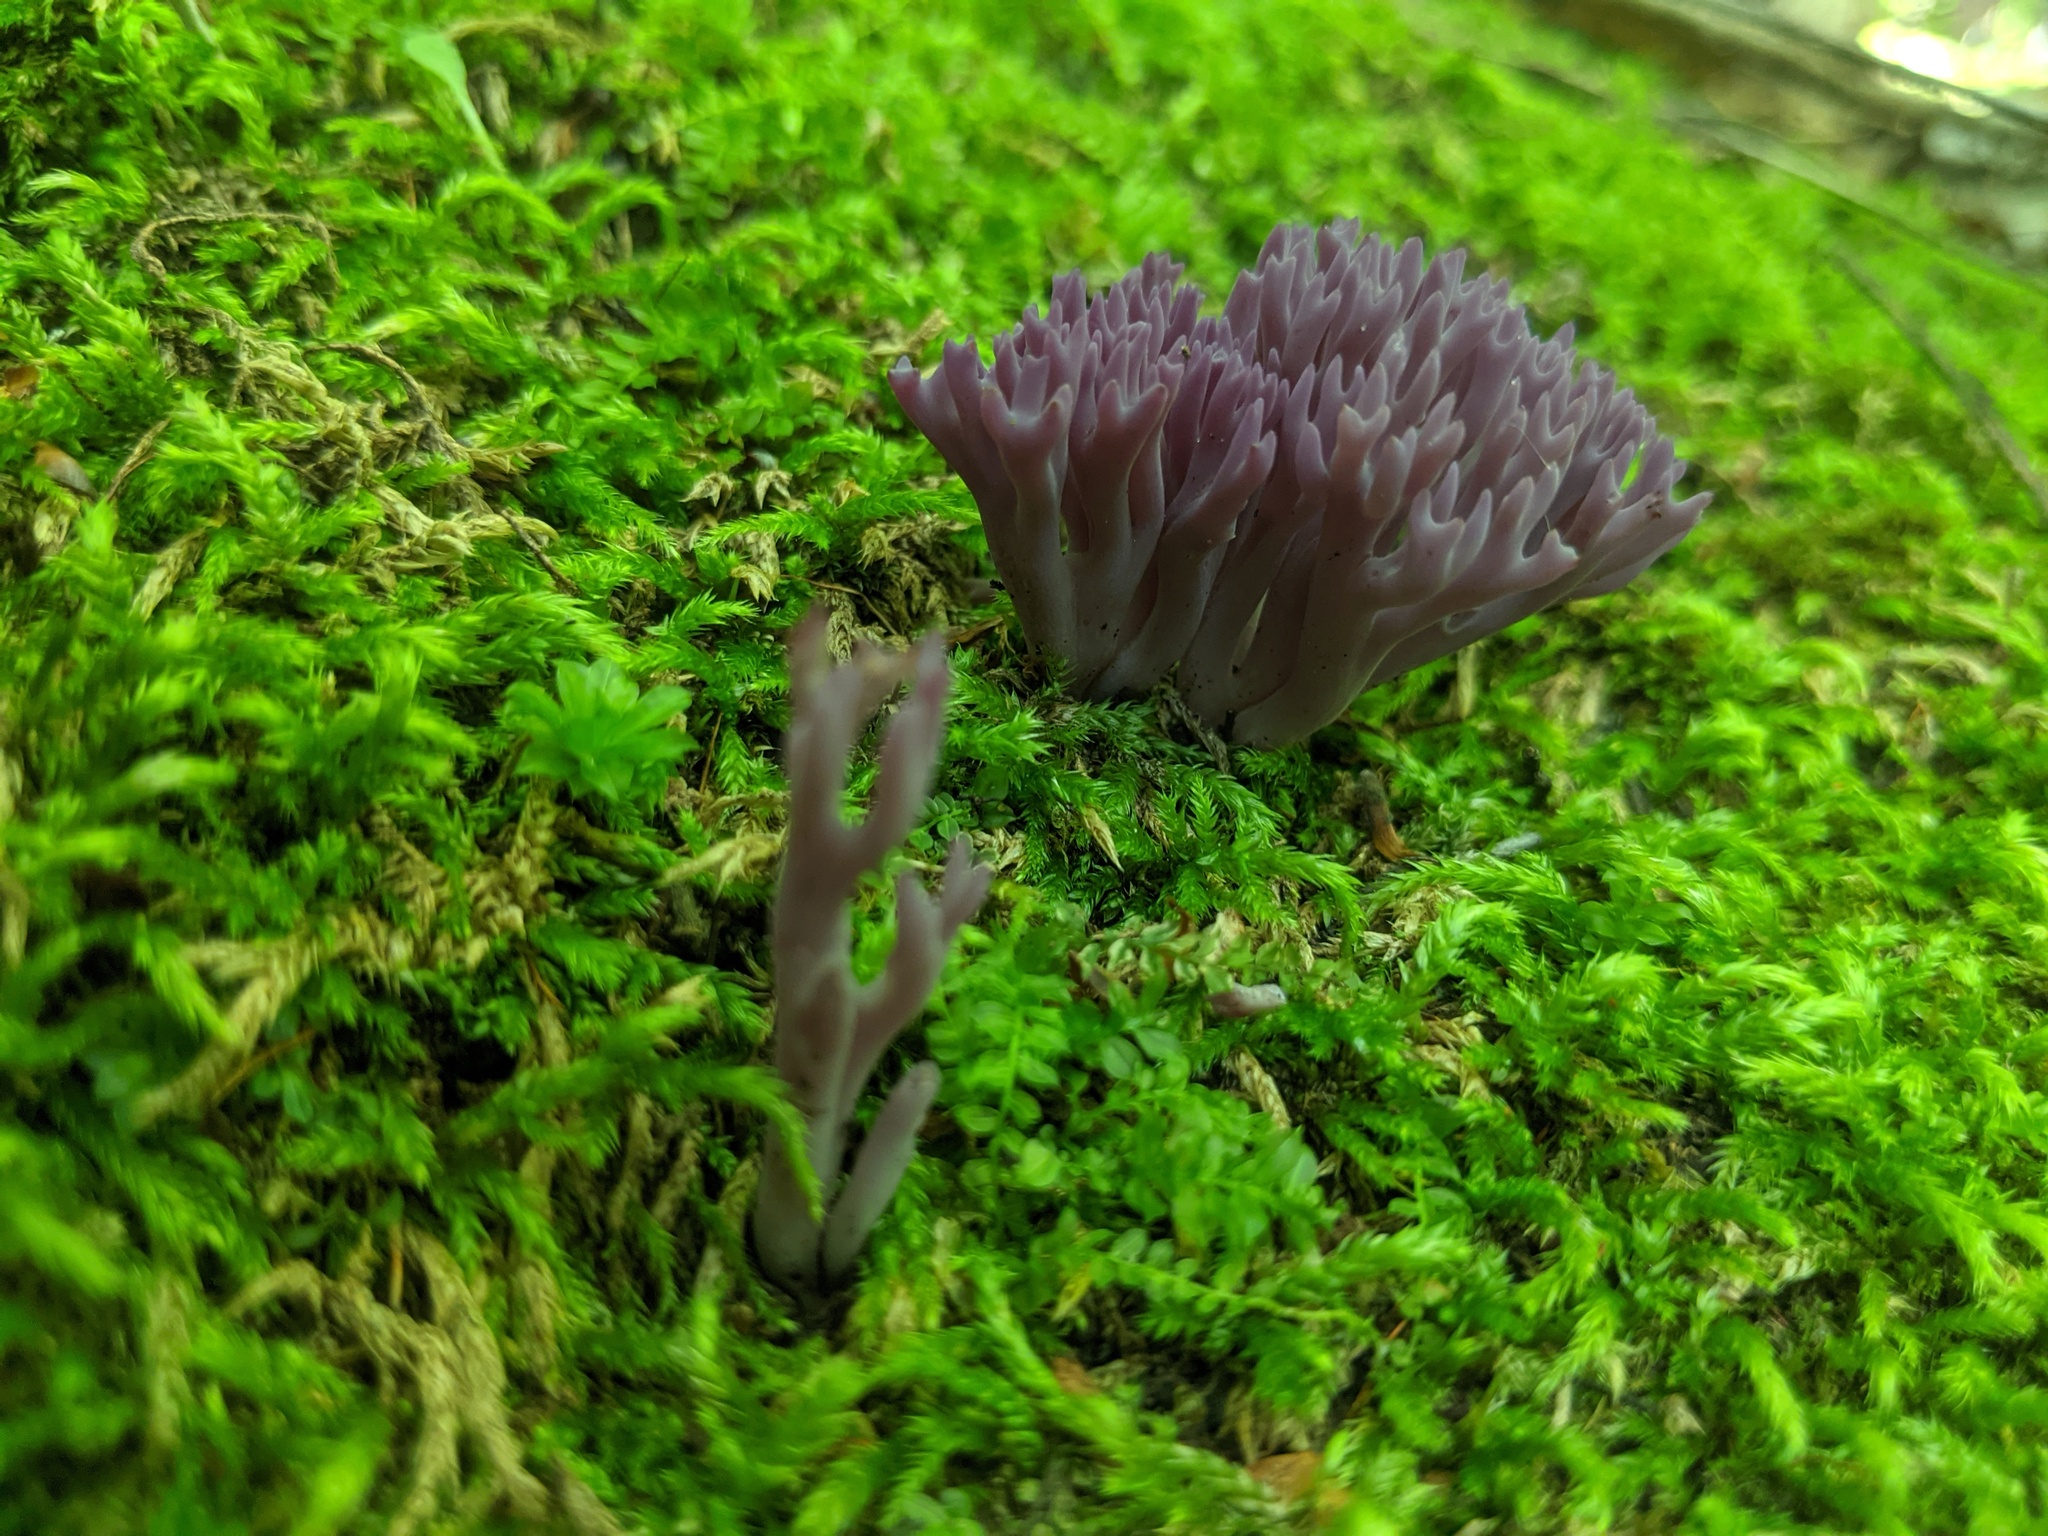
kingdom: Fungi
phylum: Basidiomycota
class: Agaricomycetes
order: Agaricales
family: Clavariaceae
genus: Clavaria
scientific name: Clavaria zollingeri
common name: Violet coral
